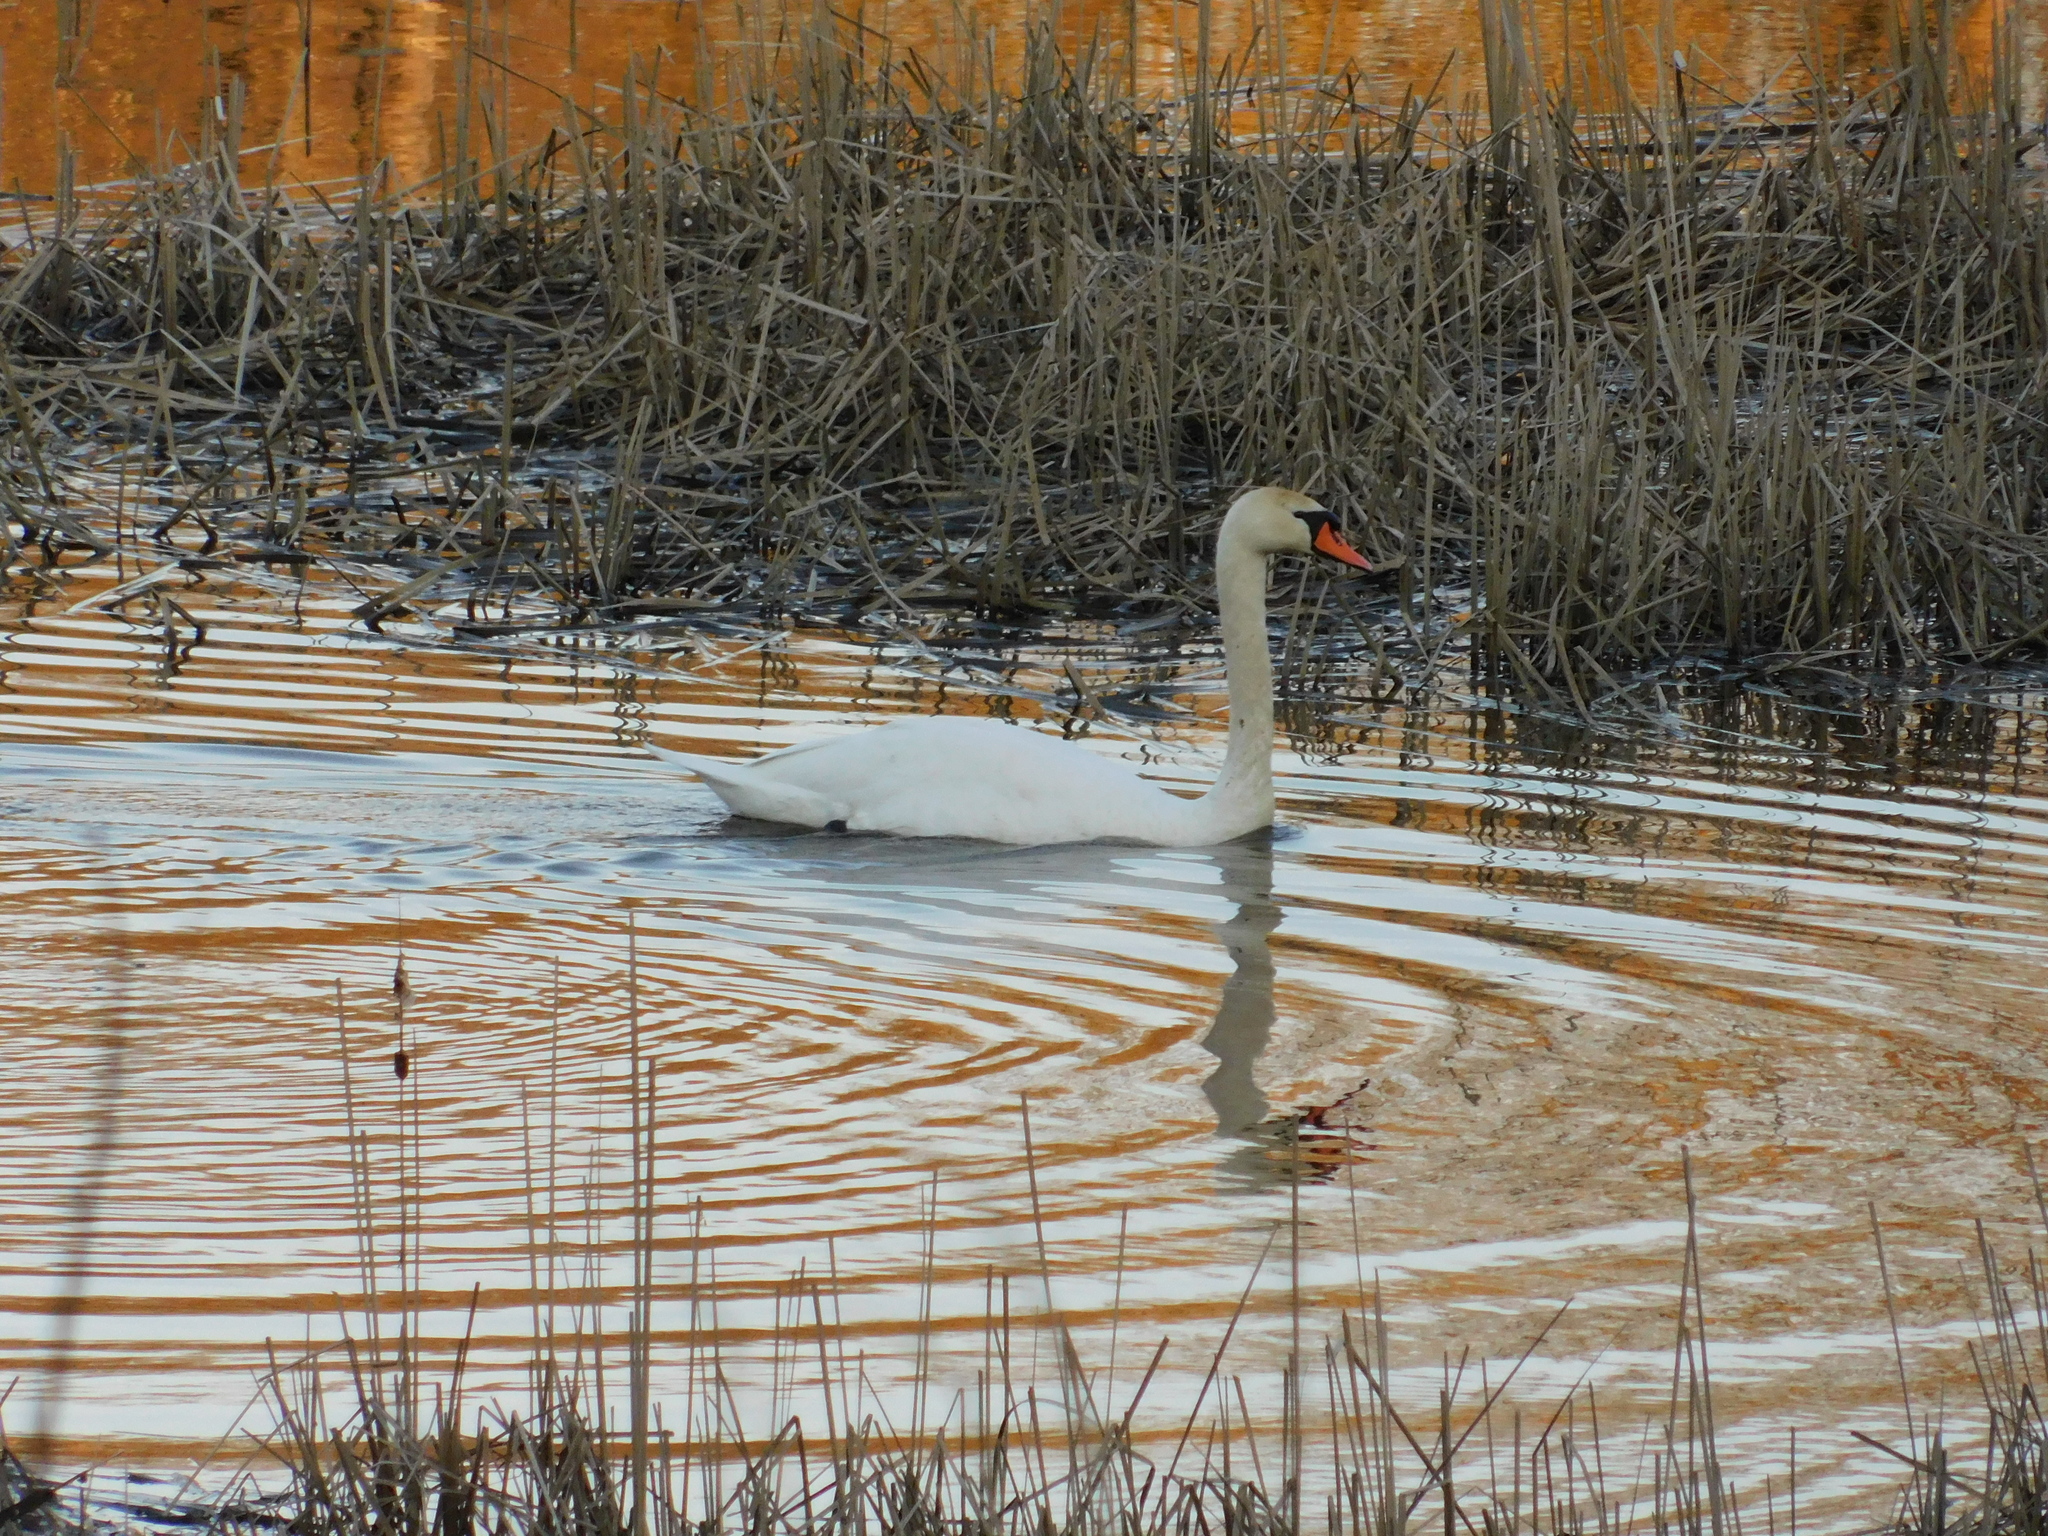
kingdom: Animalia
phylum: Chordata
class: Aves
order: Anseriformes
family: Anatidae
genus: Cygnus
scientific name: Cygnus olor
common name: Mute swan
